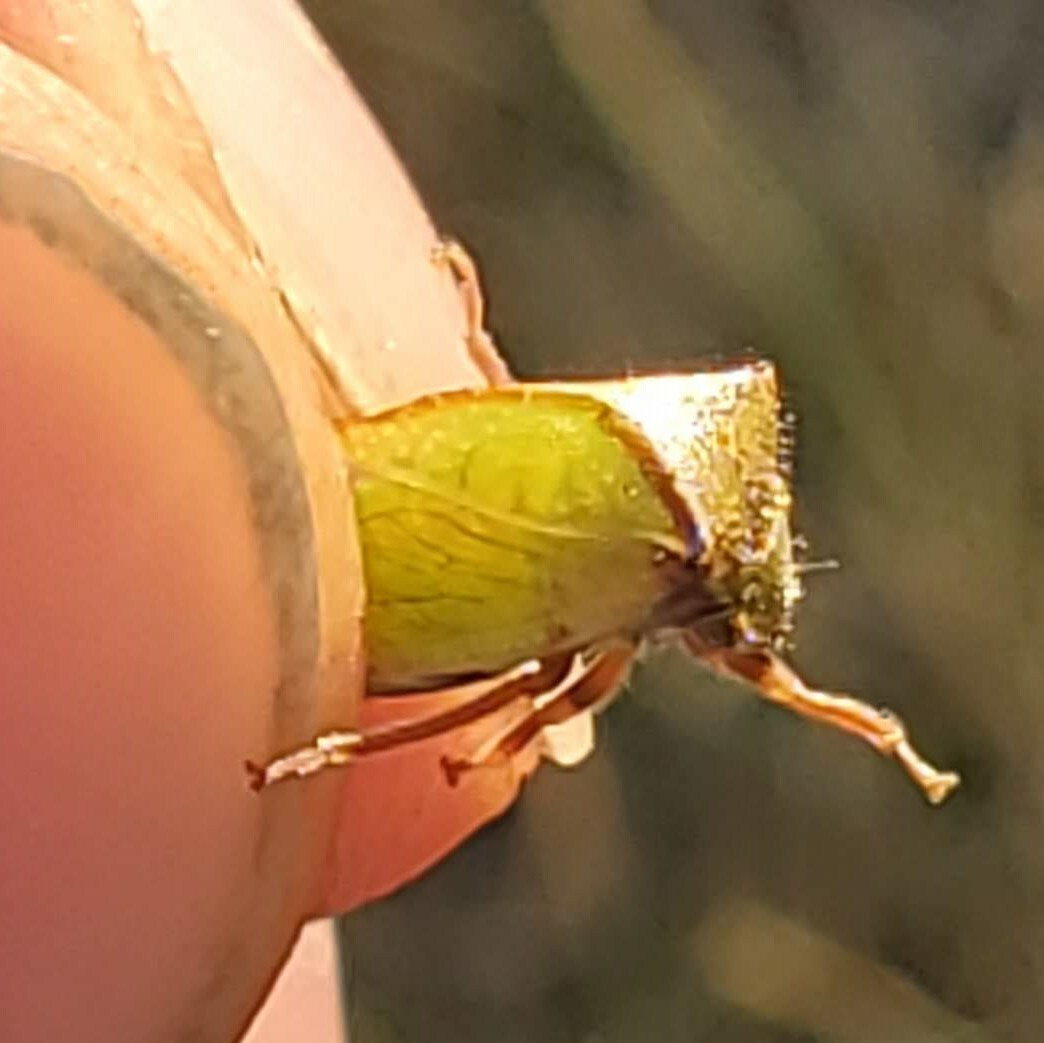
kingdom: Animalia
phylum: Arthropoda
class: Insecta
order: Hemiptera
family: Membracidae
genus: Stictocephala
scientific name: Stictocephala basalis
